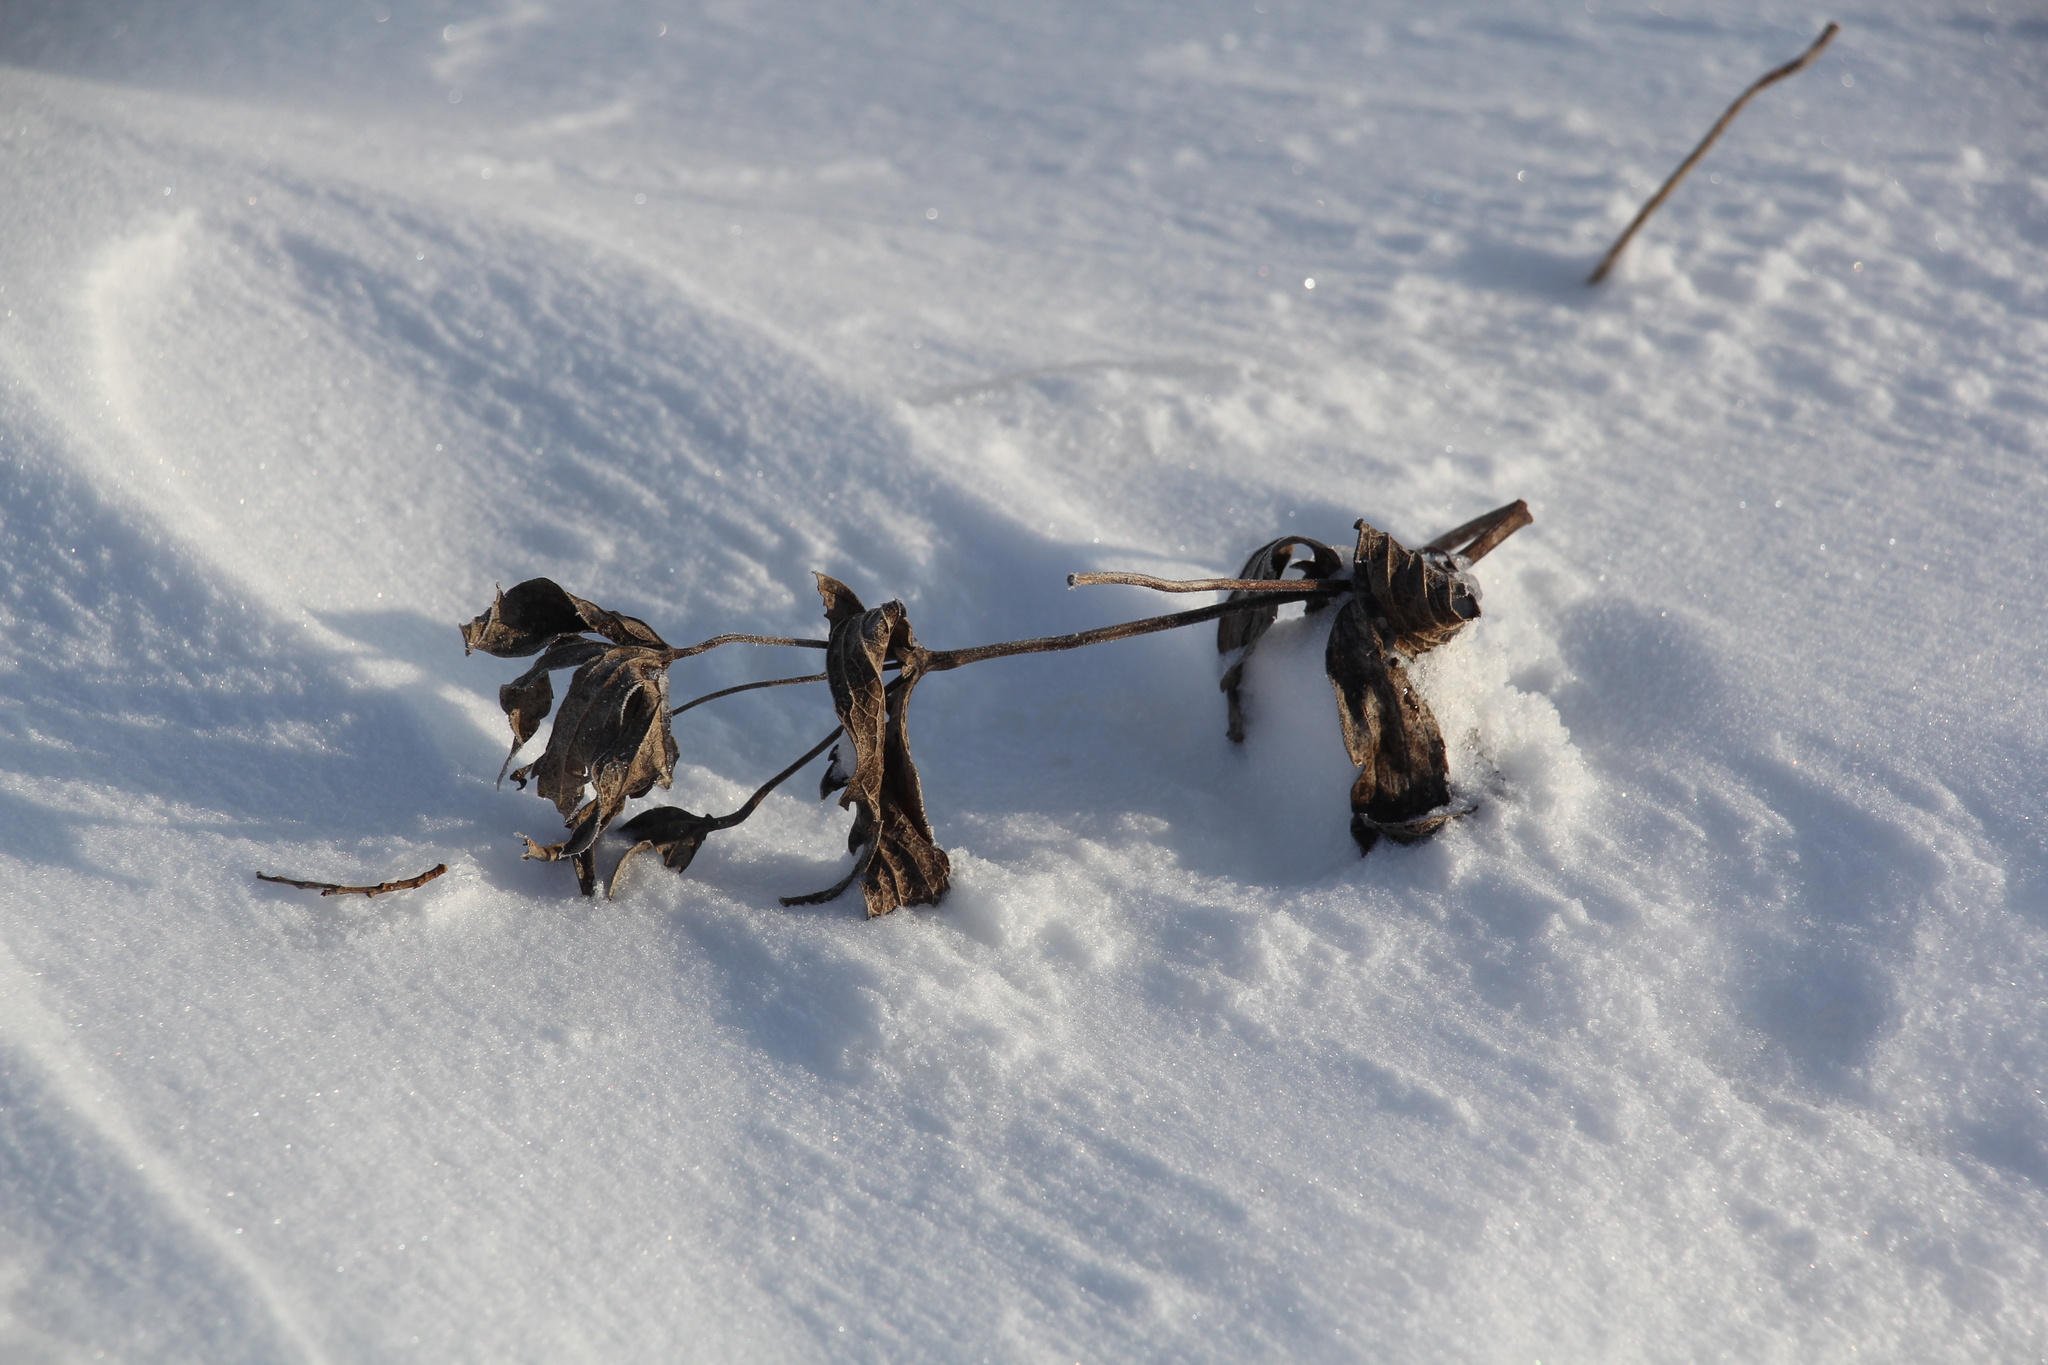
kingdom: Plantae
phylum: Tracheophyta
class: Magnoliopsida
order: Ranunculales
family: Ranunculaceae
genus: Anemonastrum
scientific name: Anemonastrum dichotomum
